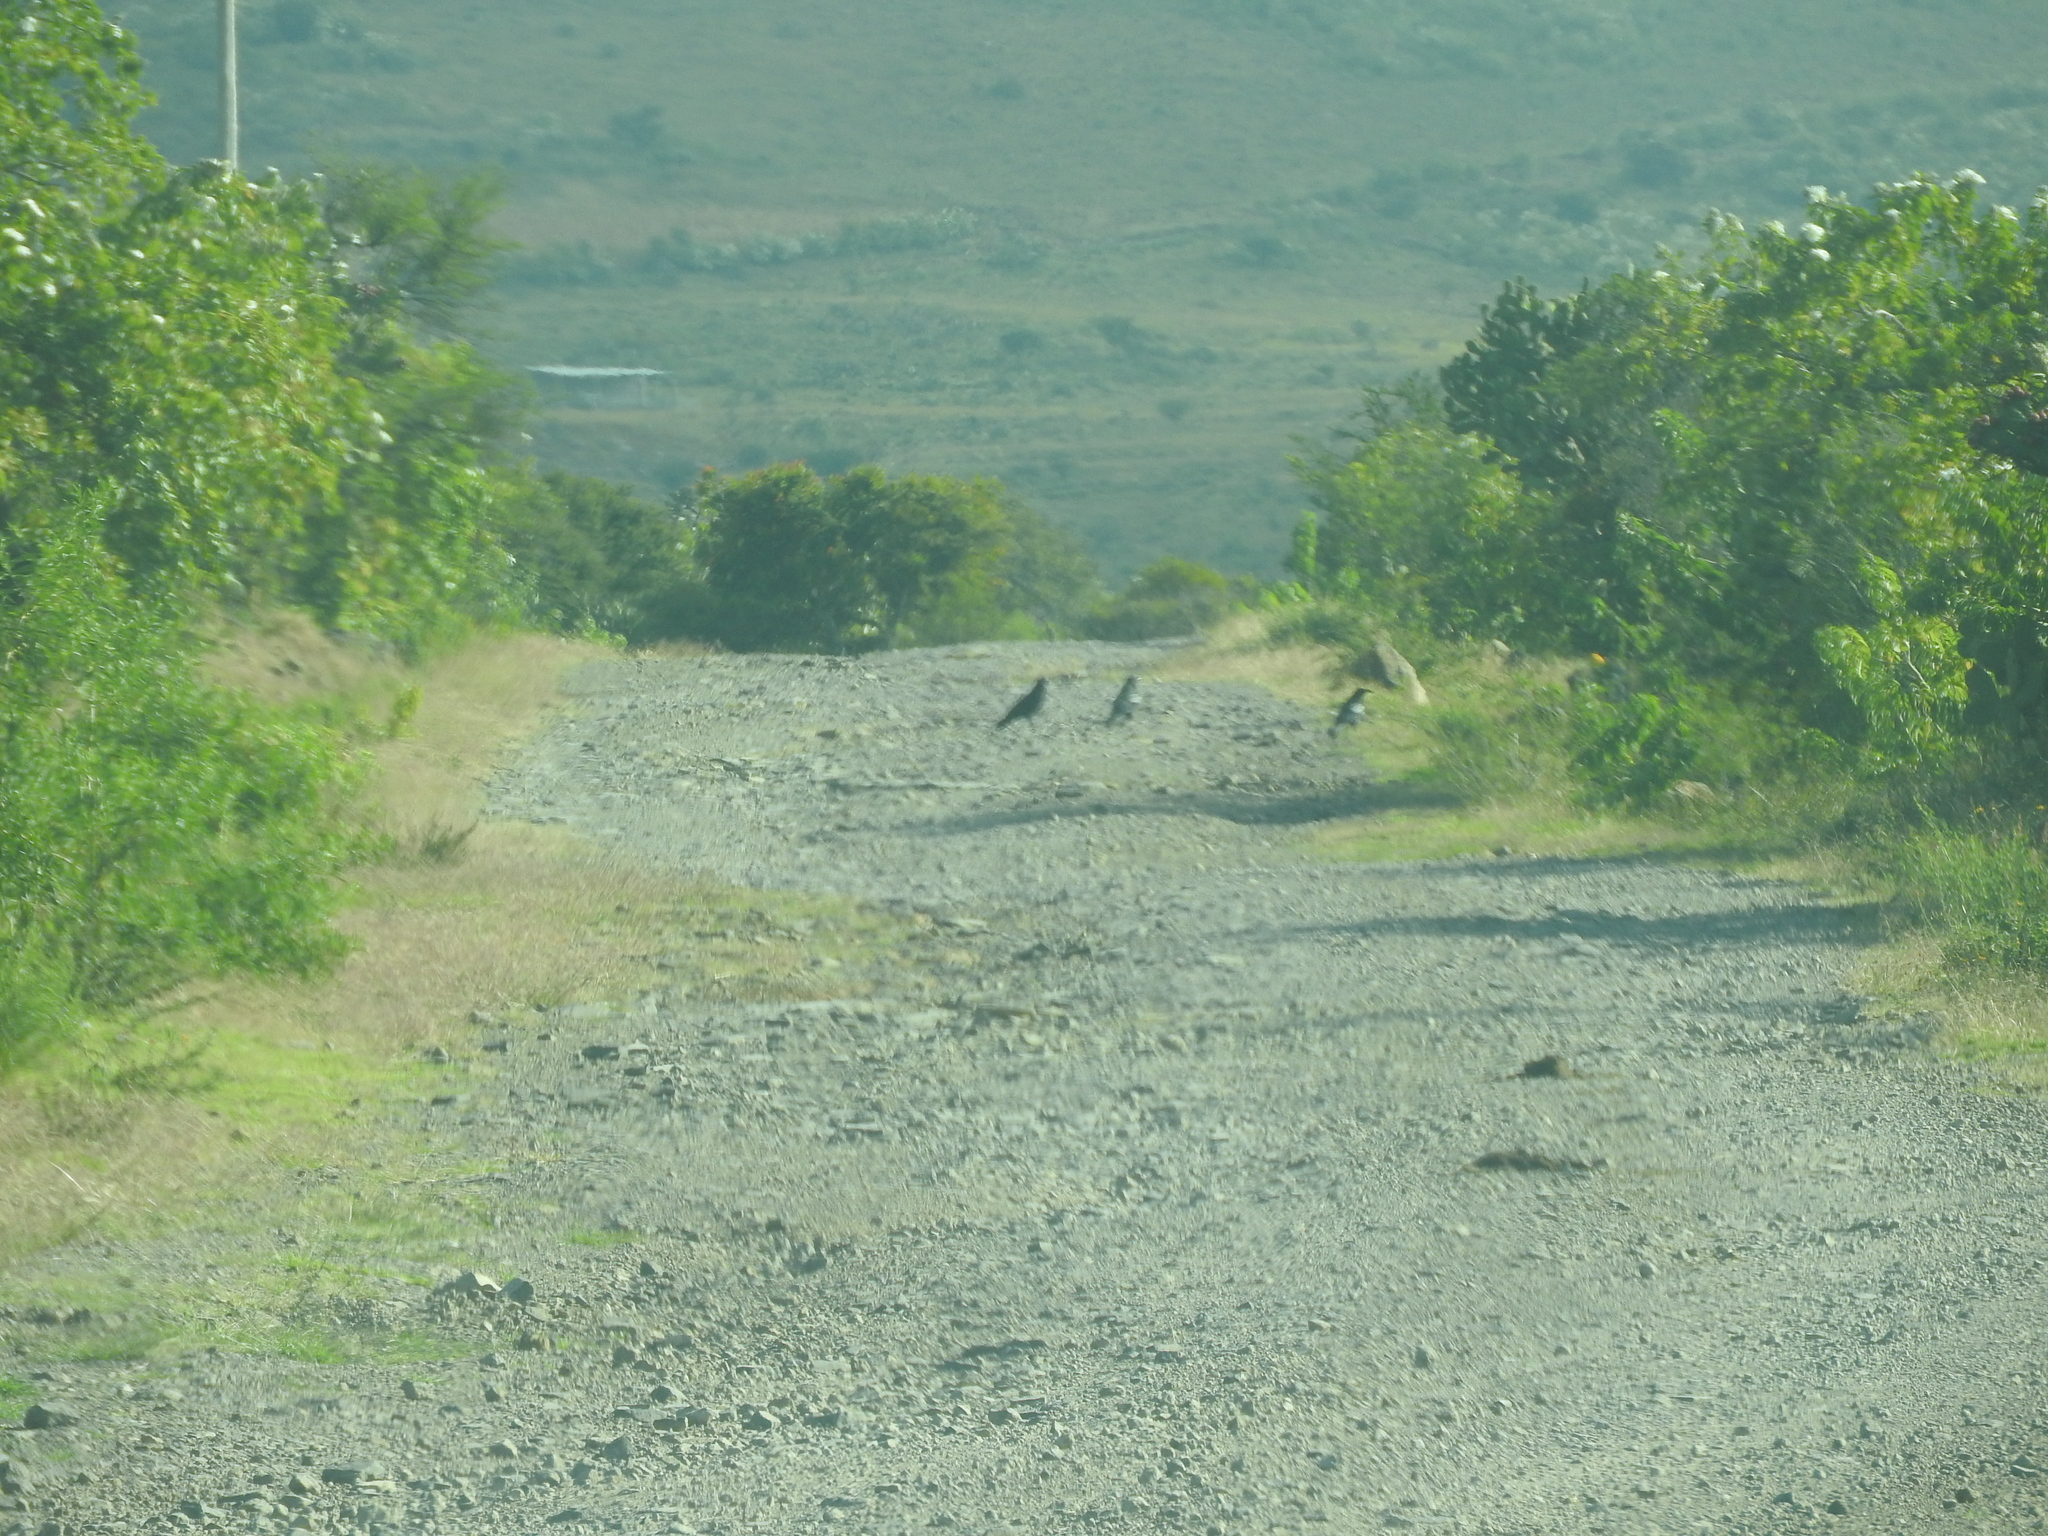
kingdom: Animalia
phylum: Chordata
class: Aves
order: Passeriformes
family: Corvidae
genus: Corvus
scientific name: Corvus corax
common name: Common raven
